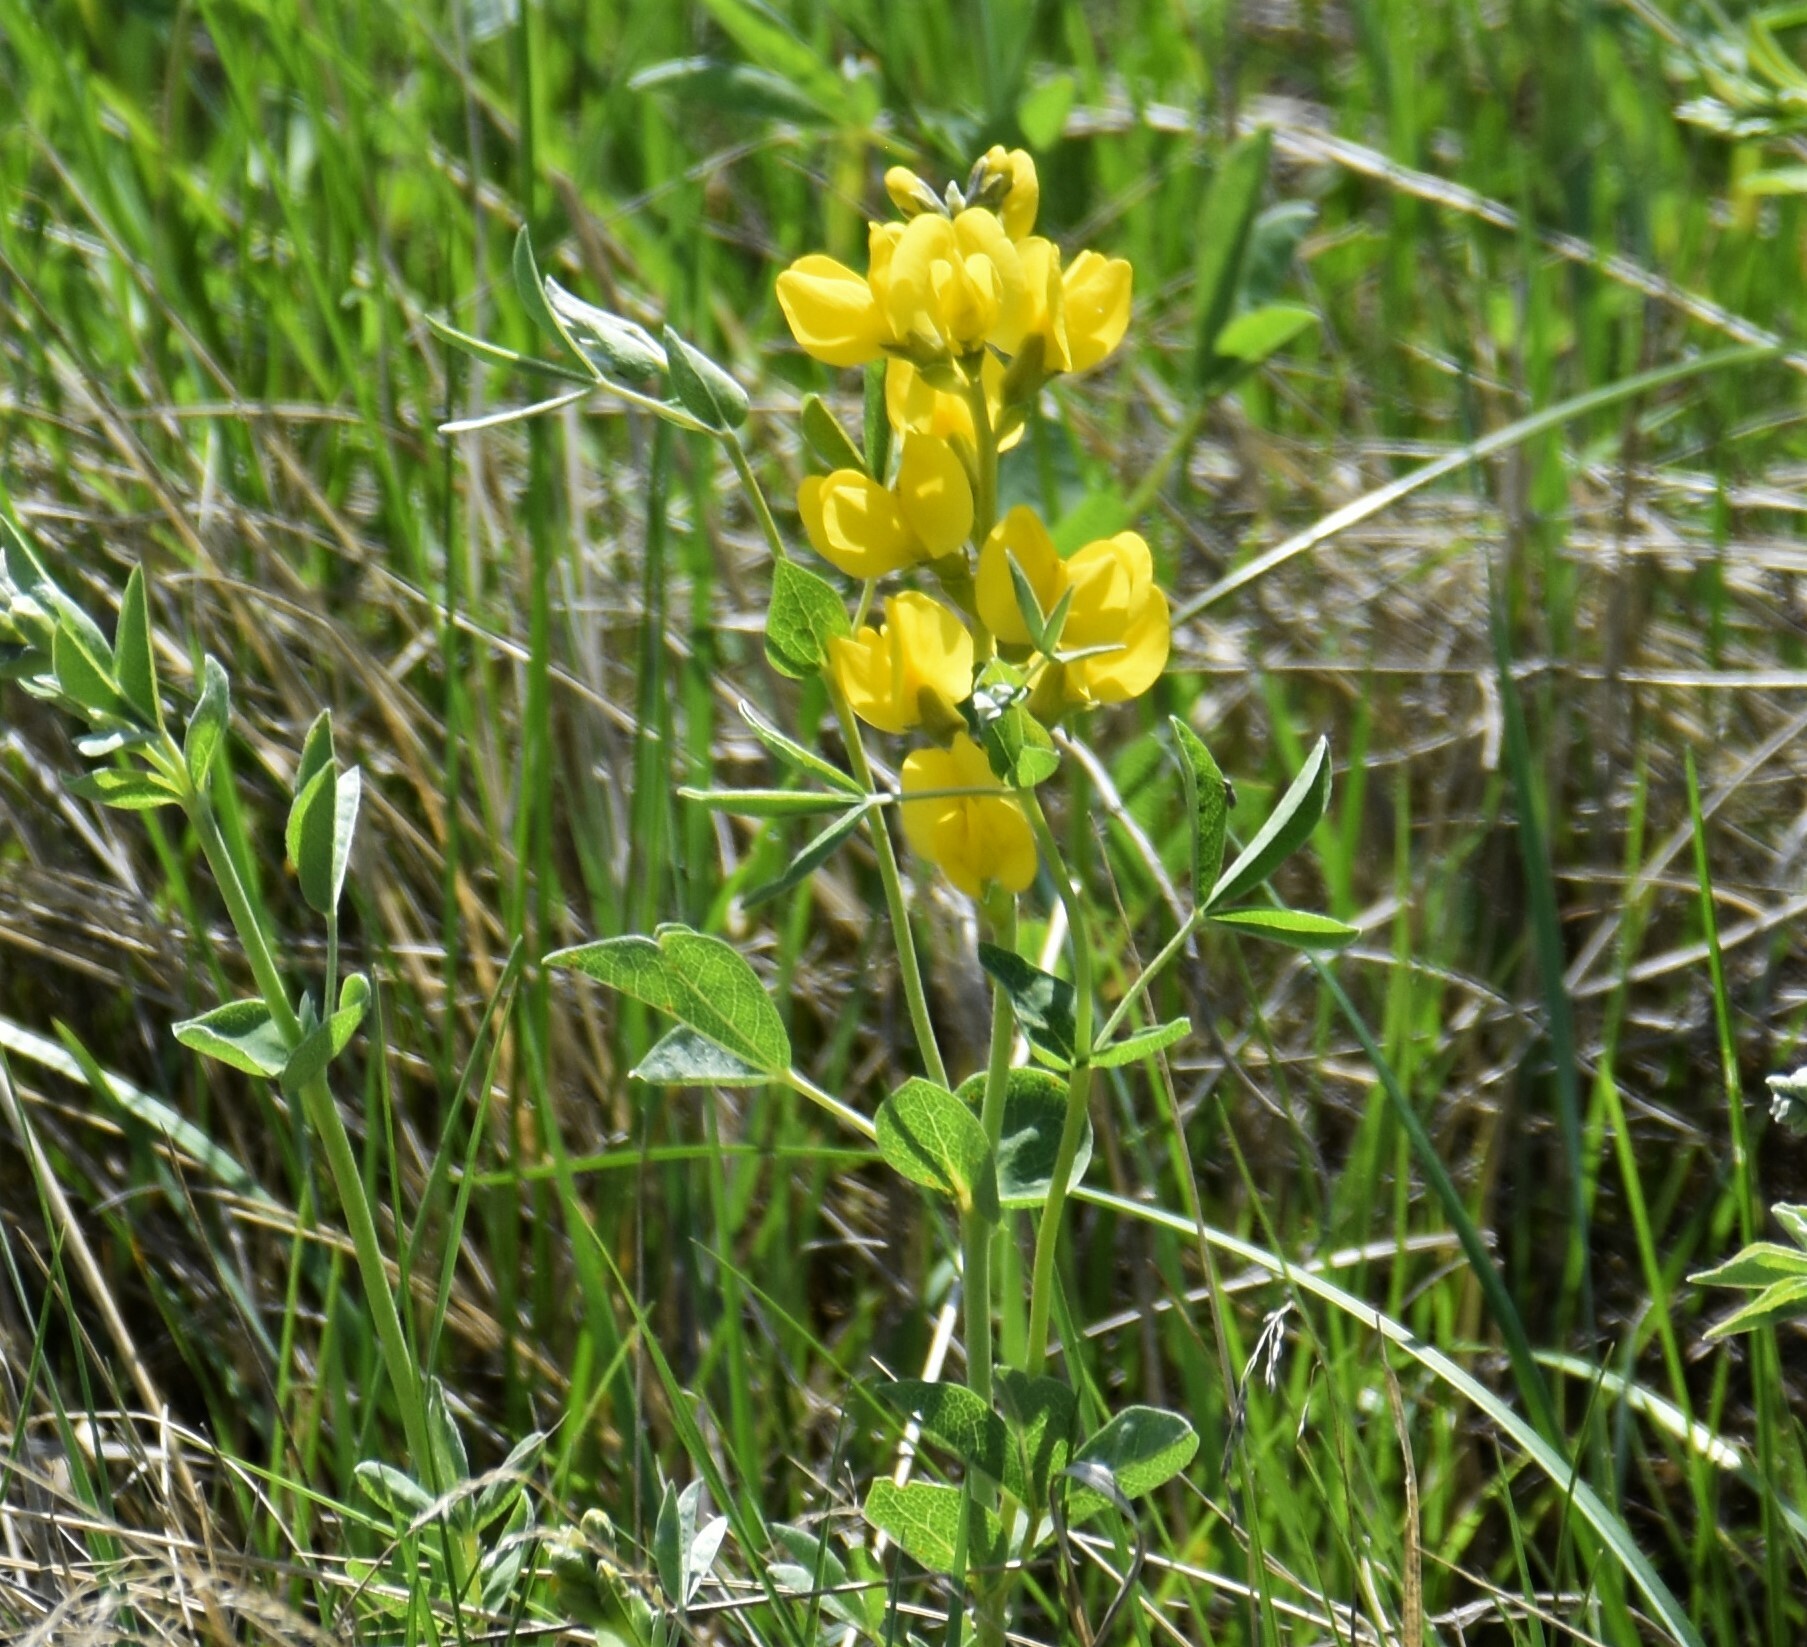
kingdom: Plantae
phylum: Tracheophyta
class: Magnoliopsida
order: Fabales
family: Fabaceae
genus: Thermopsis
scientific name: Thermopsis rhombifolia
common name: Circle-pod-pea
